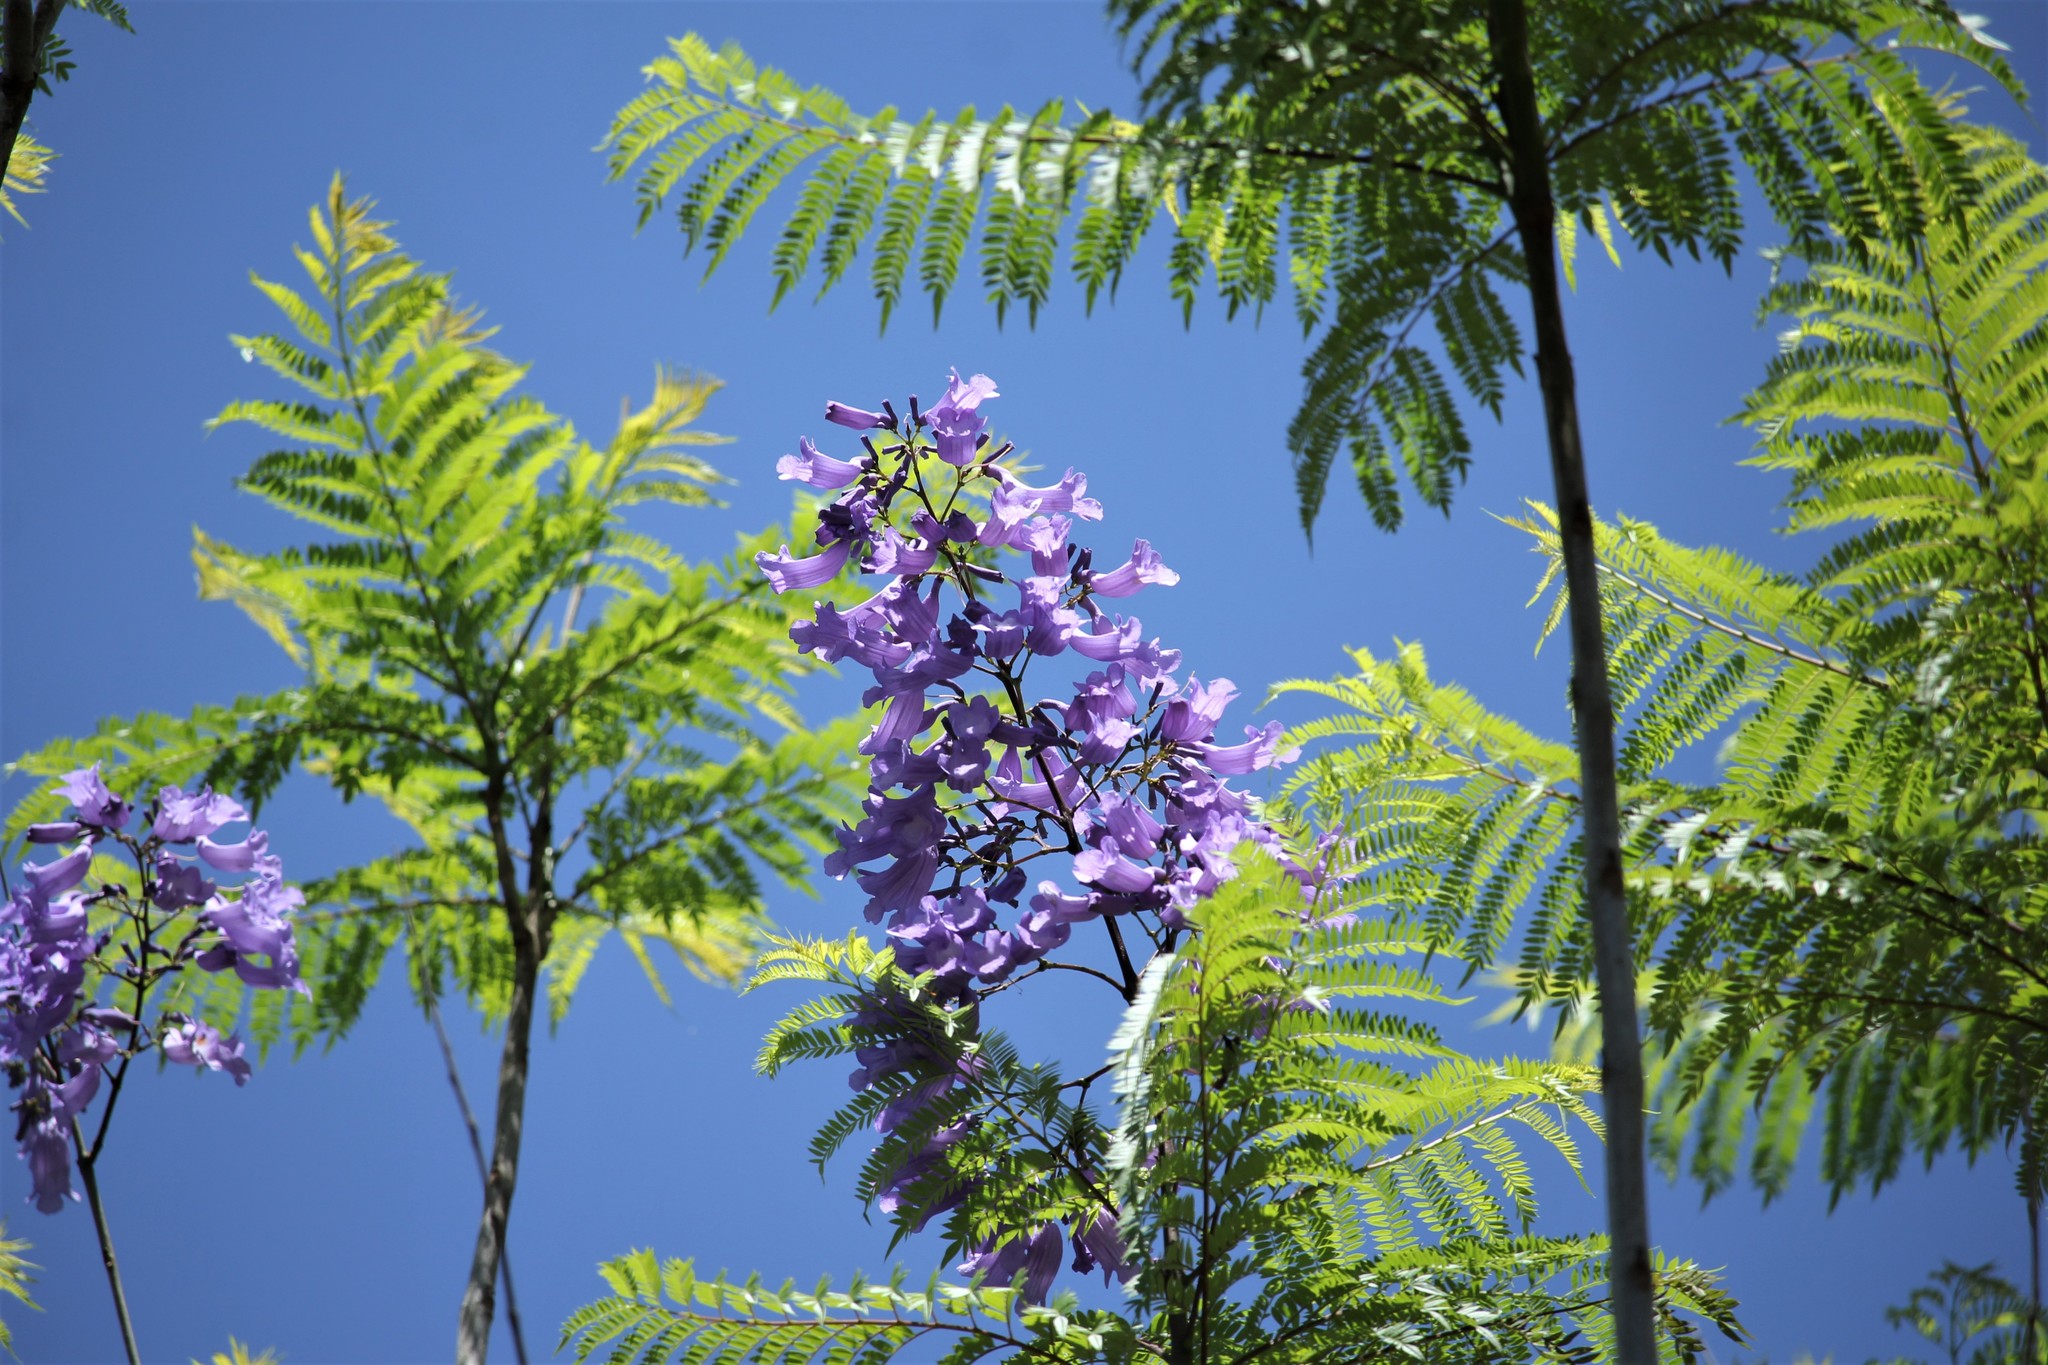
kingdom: Plantae
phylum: Tracheophyta
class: Magnoliopsida
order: Lamiales
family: Bignoniaceae
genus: Jacaranda
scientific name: Jacaranda mimosifolia
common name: Black poui
